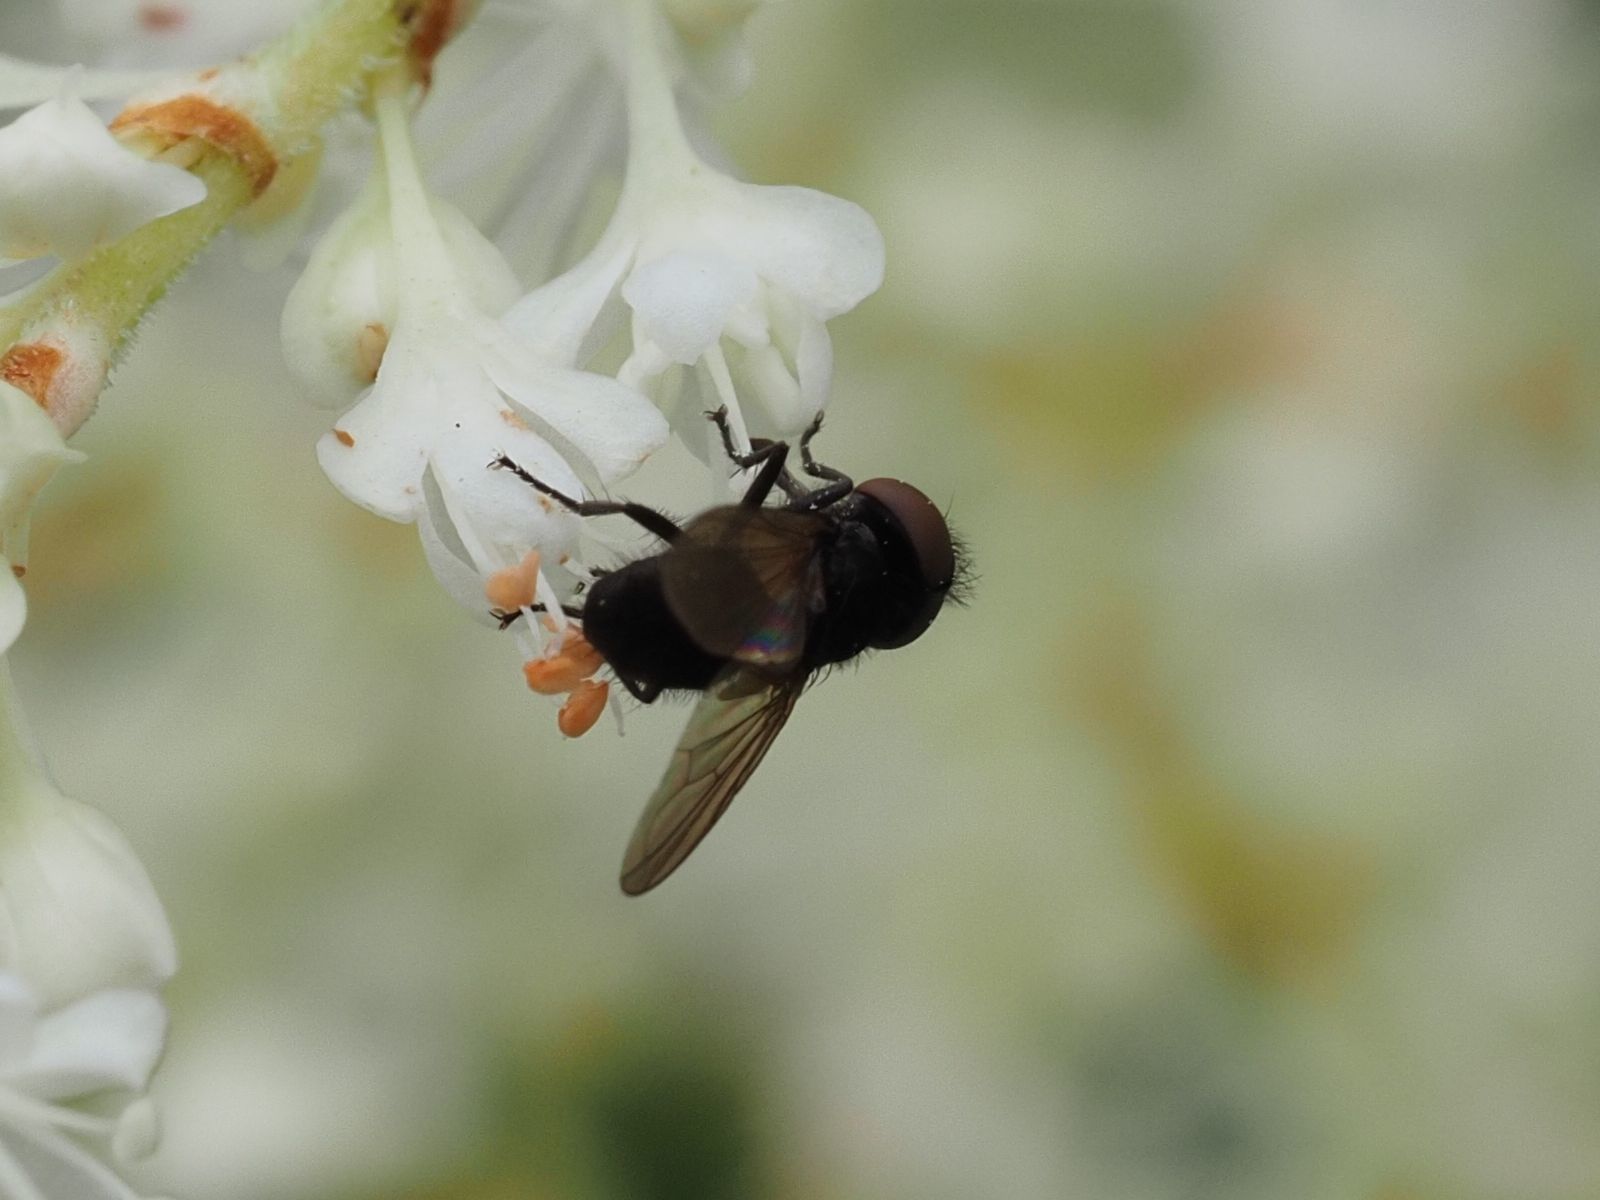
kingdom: Animalia
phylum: Arthropoda
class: Insecta
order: Diptera
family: Tachinidae
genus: Phasia
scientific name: Phasia barbifrons
